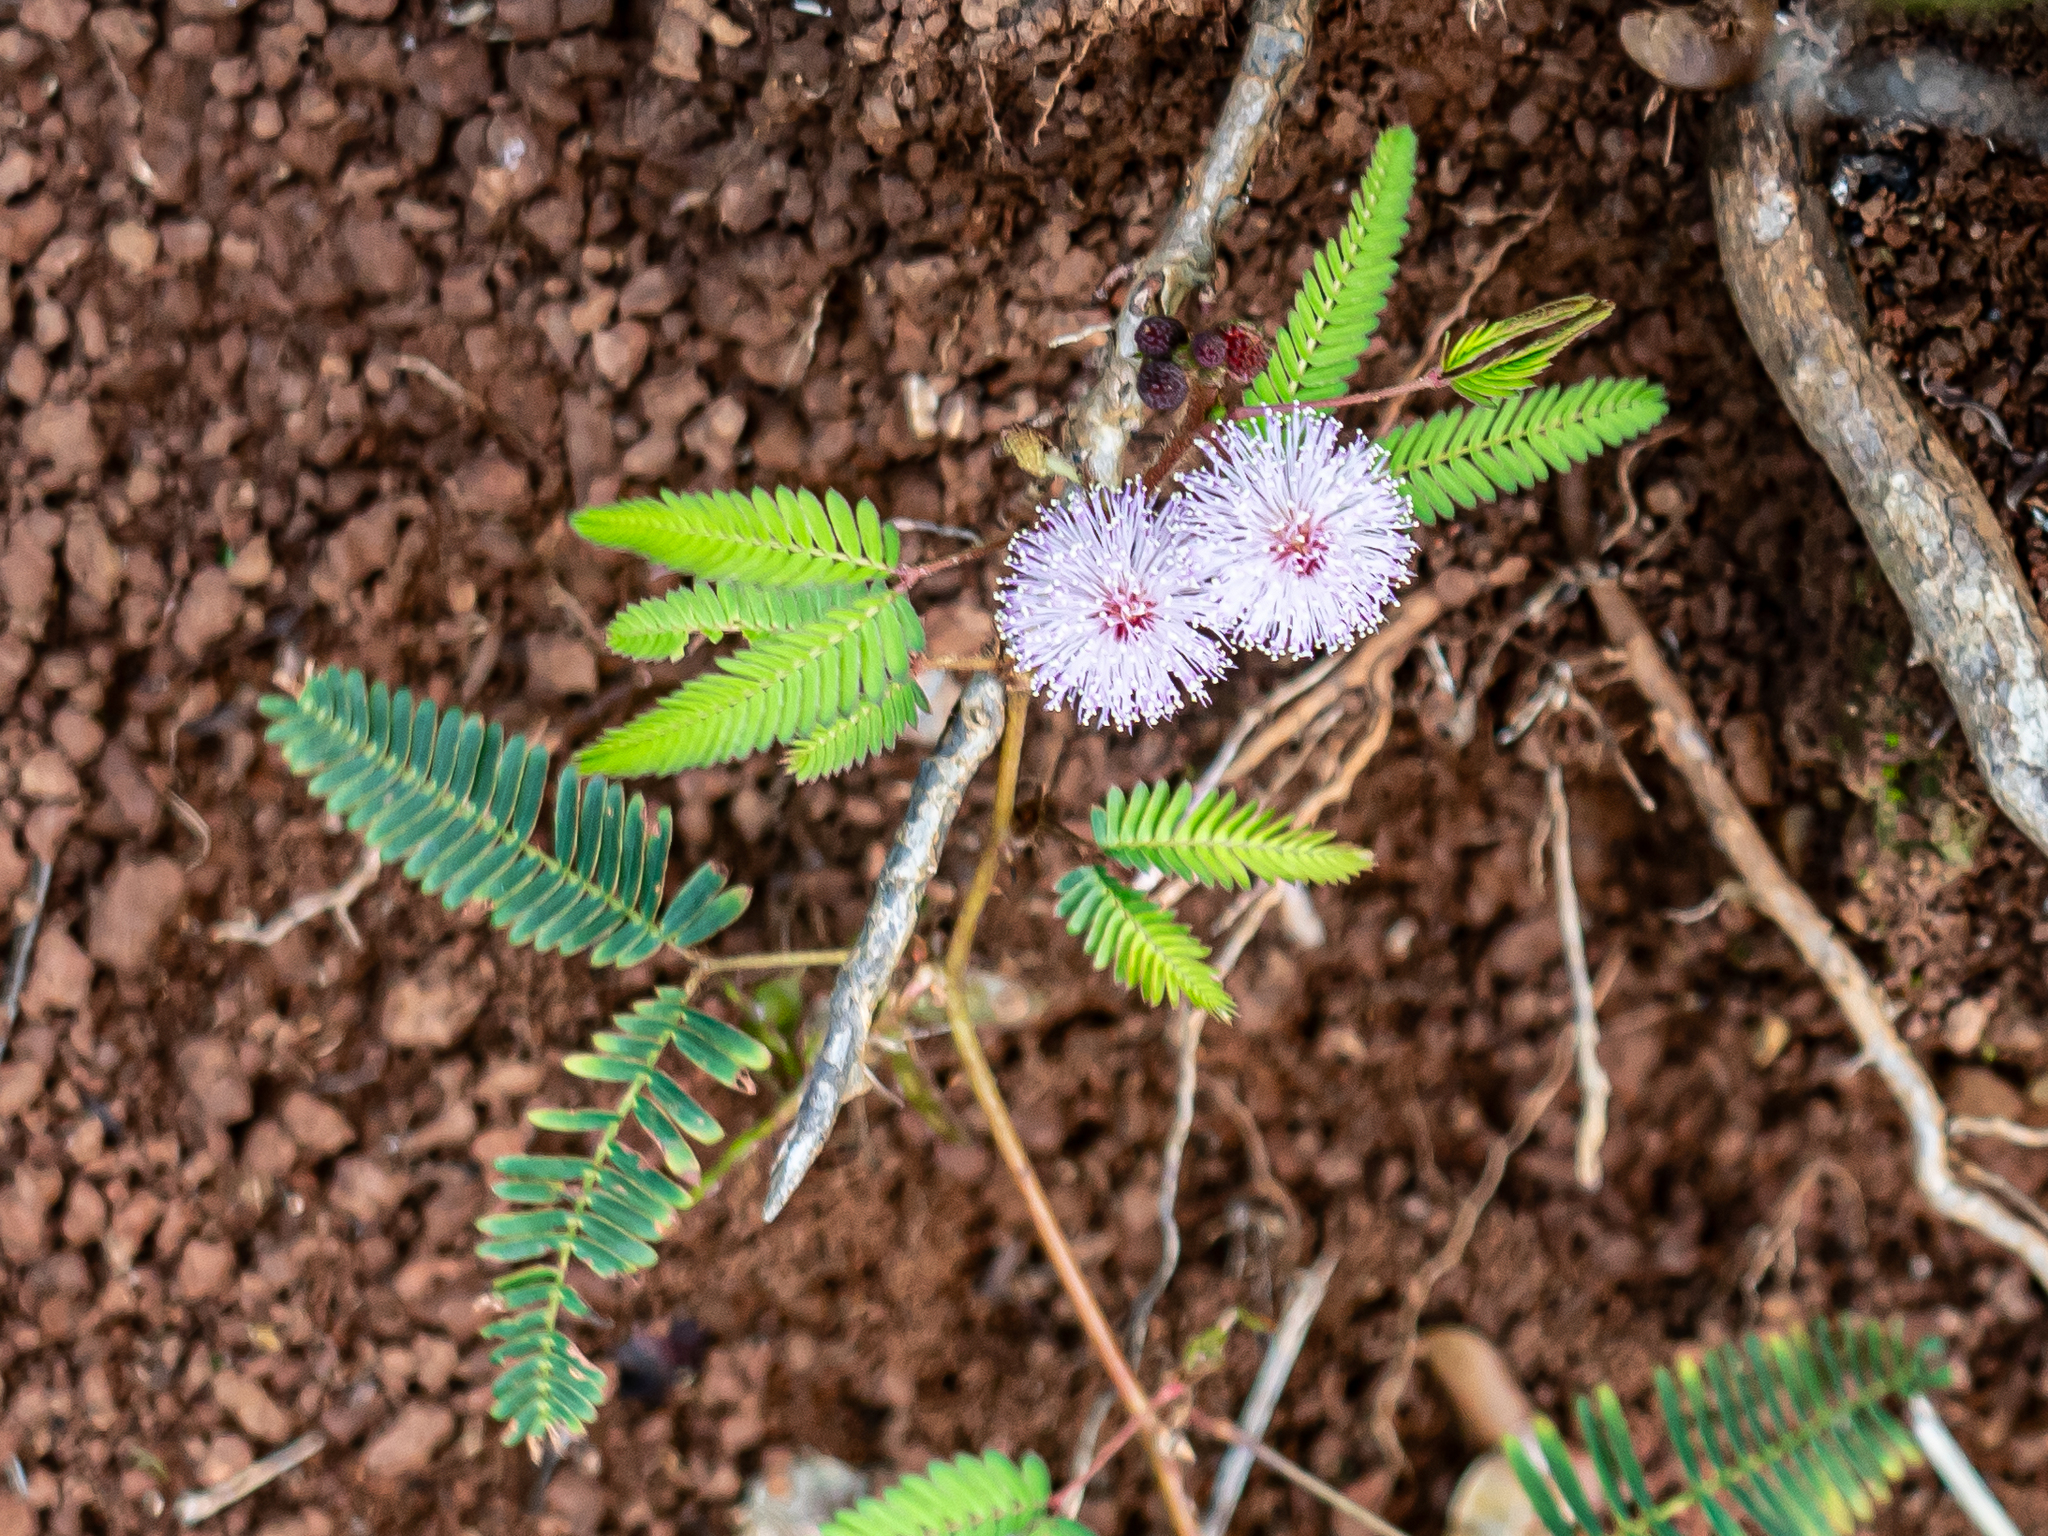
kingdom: Plantae
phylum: Tracheophyta
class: Magnoliopsida
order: Fabales
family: Fabaceae
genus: Mimosa
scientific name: Mimosa pudica
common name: Sensitive plant
